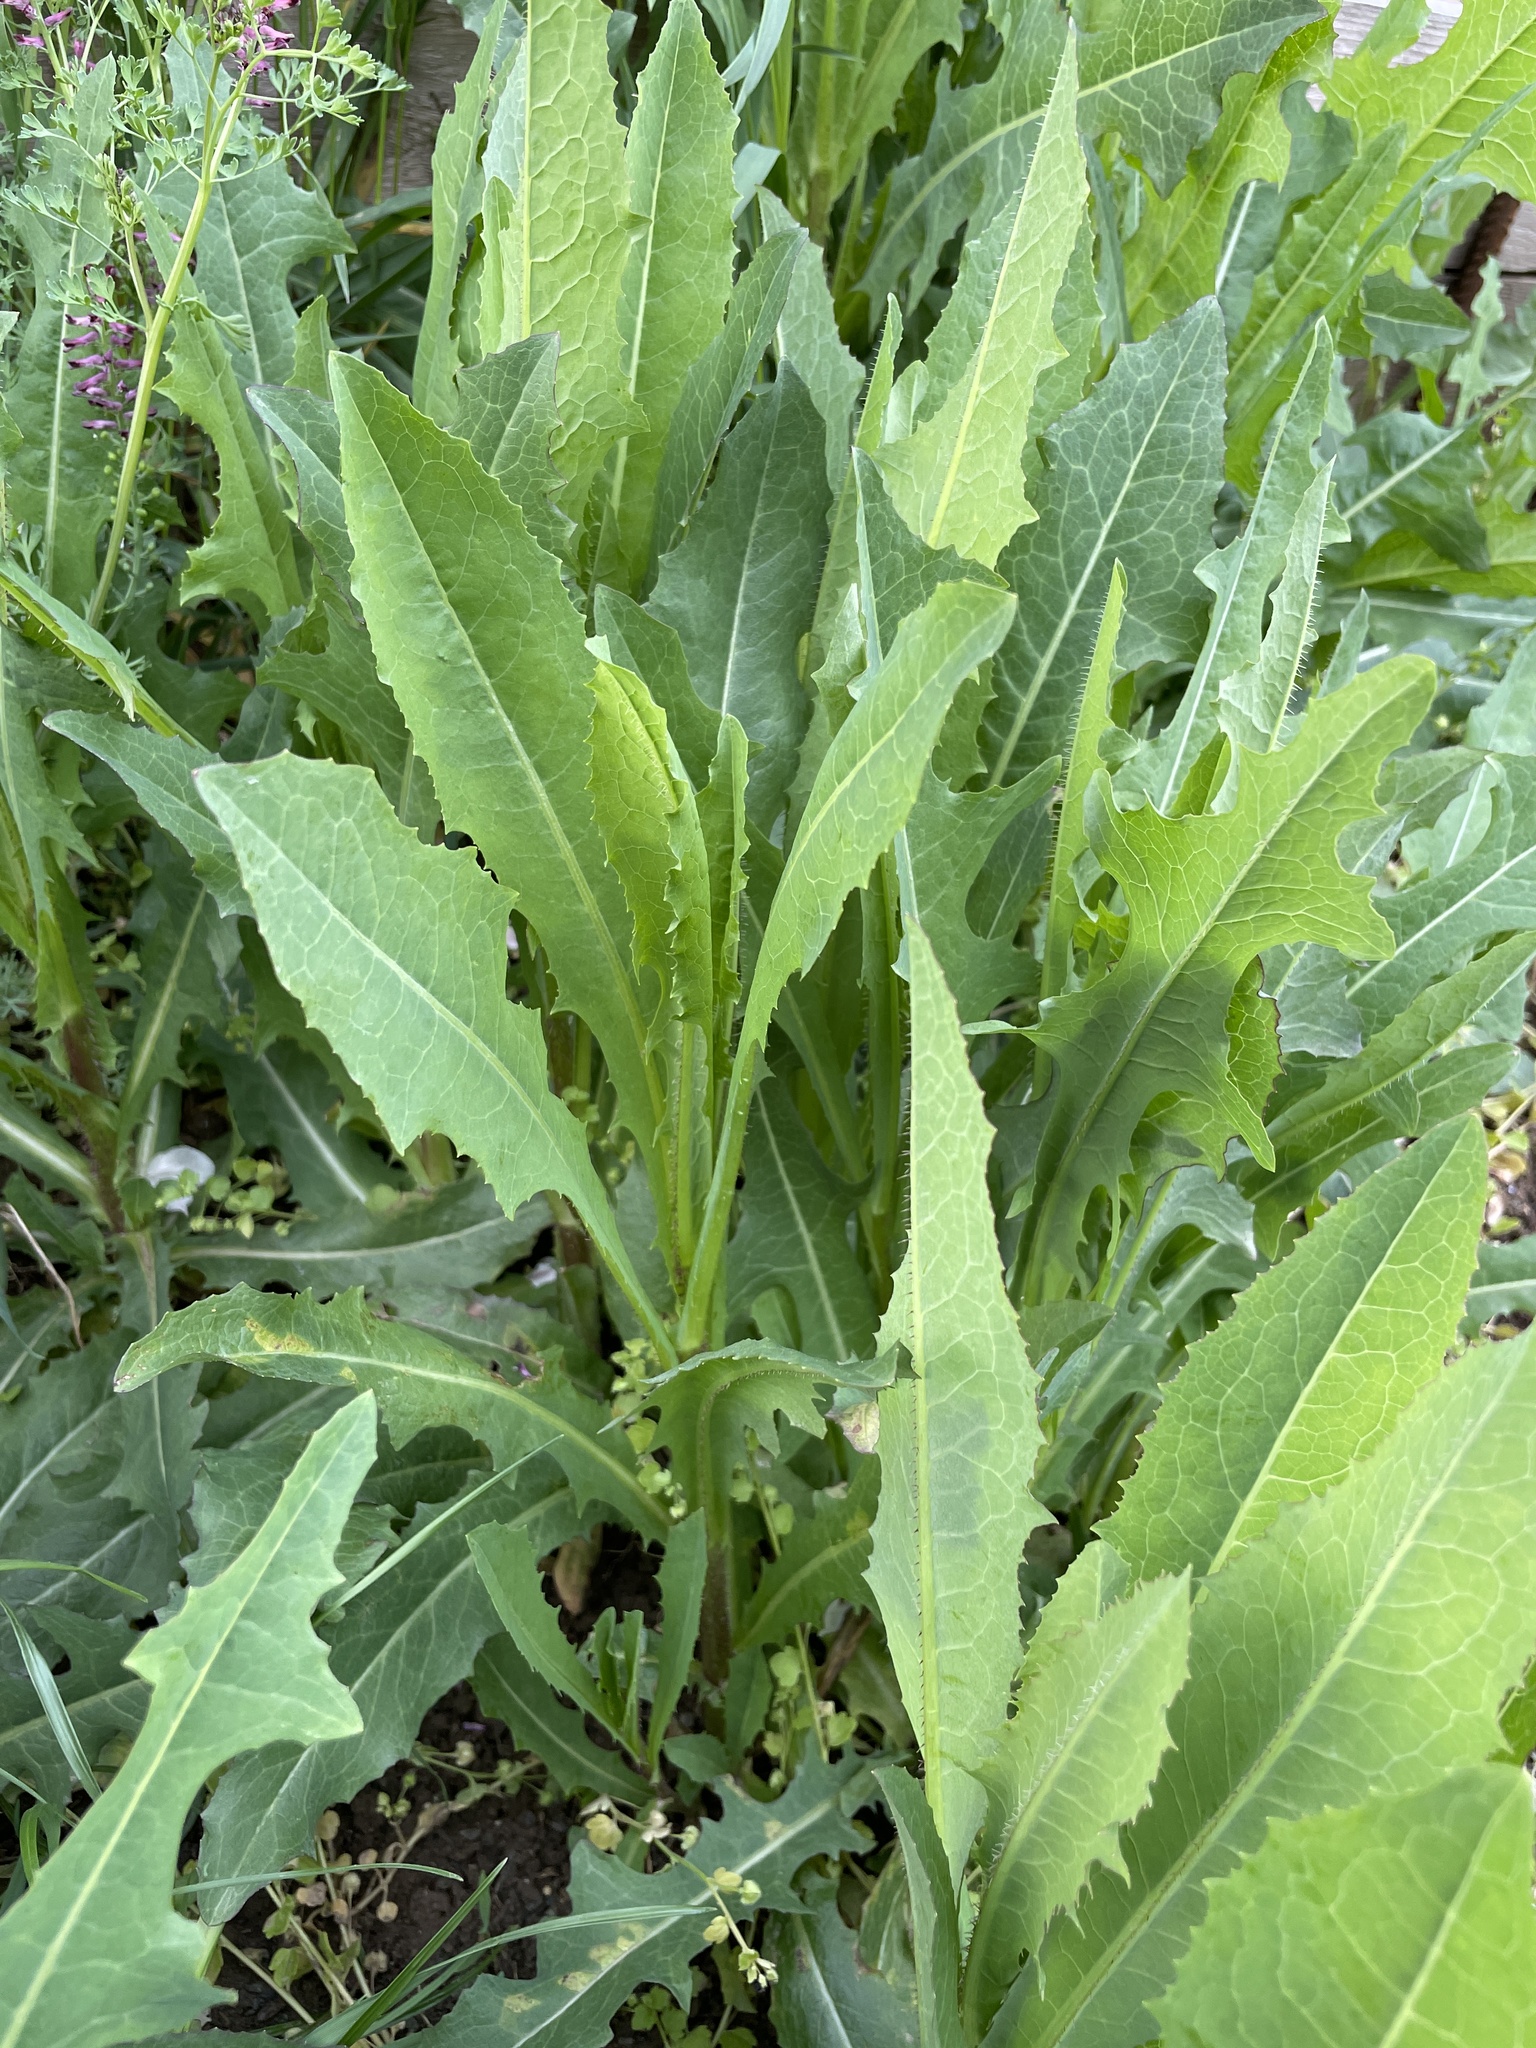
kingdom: Plantae
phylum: Tracheophyta
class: Magnoliopsida
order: Asterales
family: Asteraceae
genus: Lactuca
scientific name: Lactuca serriola
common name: Prickly lettuce
